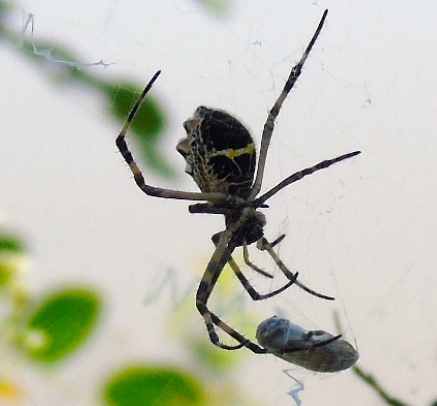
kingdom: Animalia
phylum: Arthropoda
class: Arachnida
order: Araneae
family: Araneidae
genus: Argiope
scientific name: Argiope argentata
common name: Orb weavers
